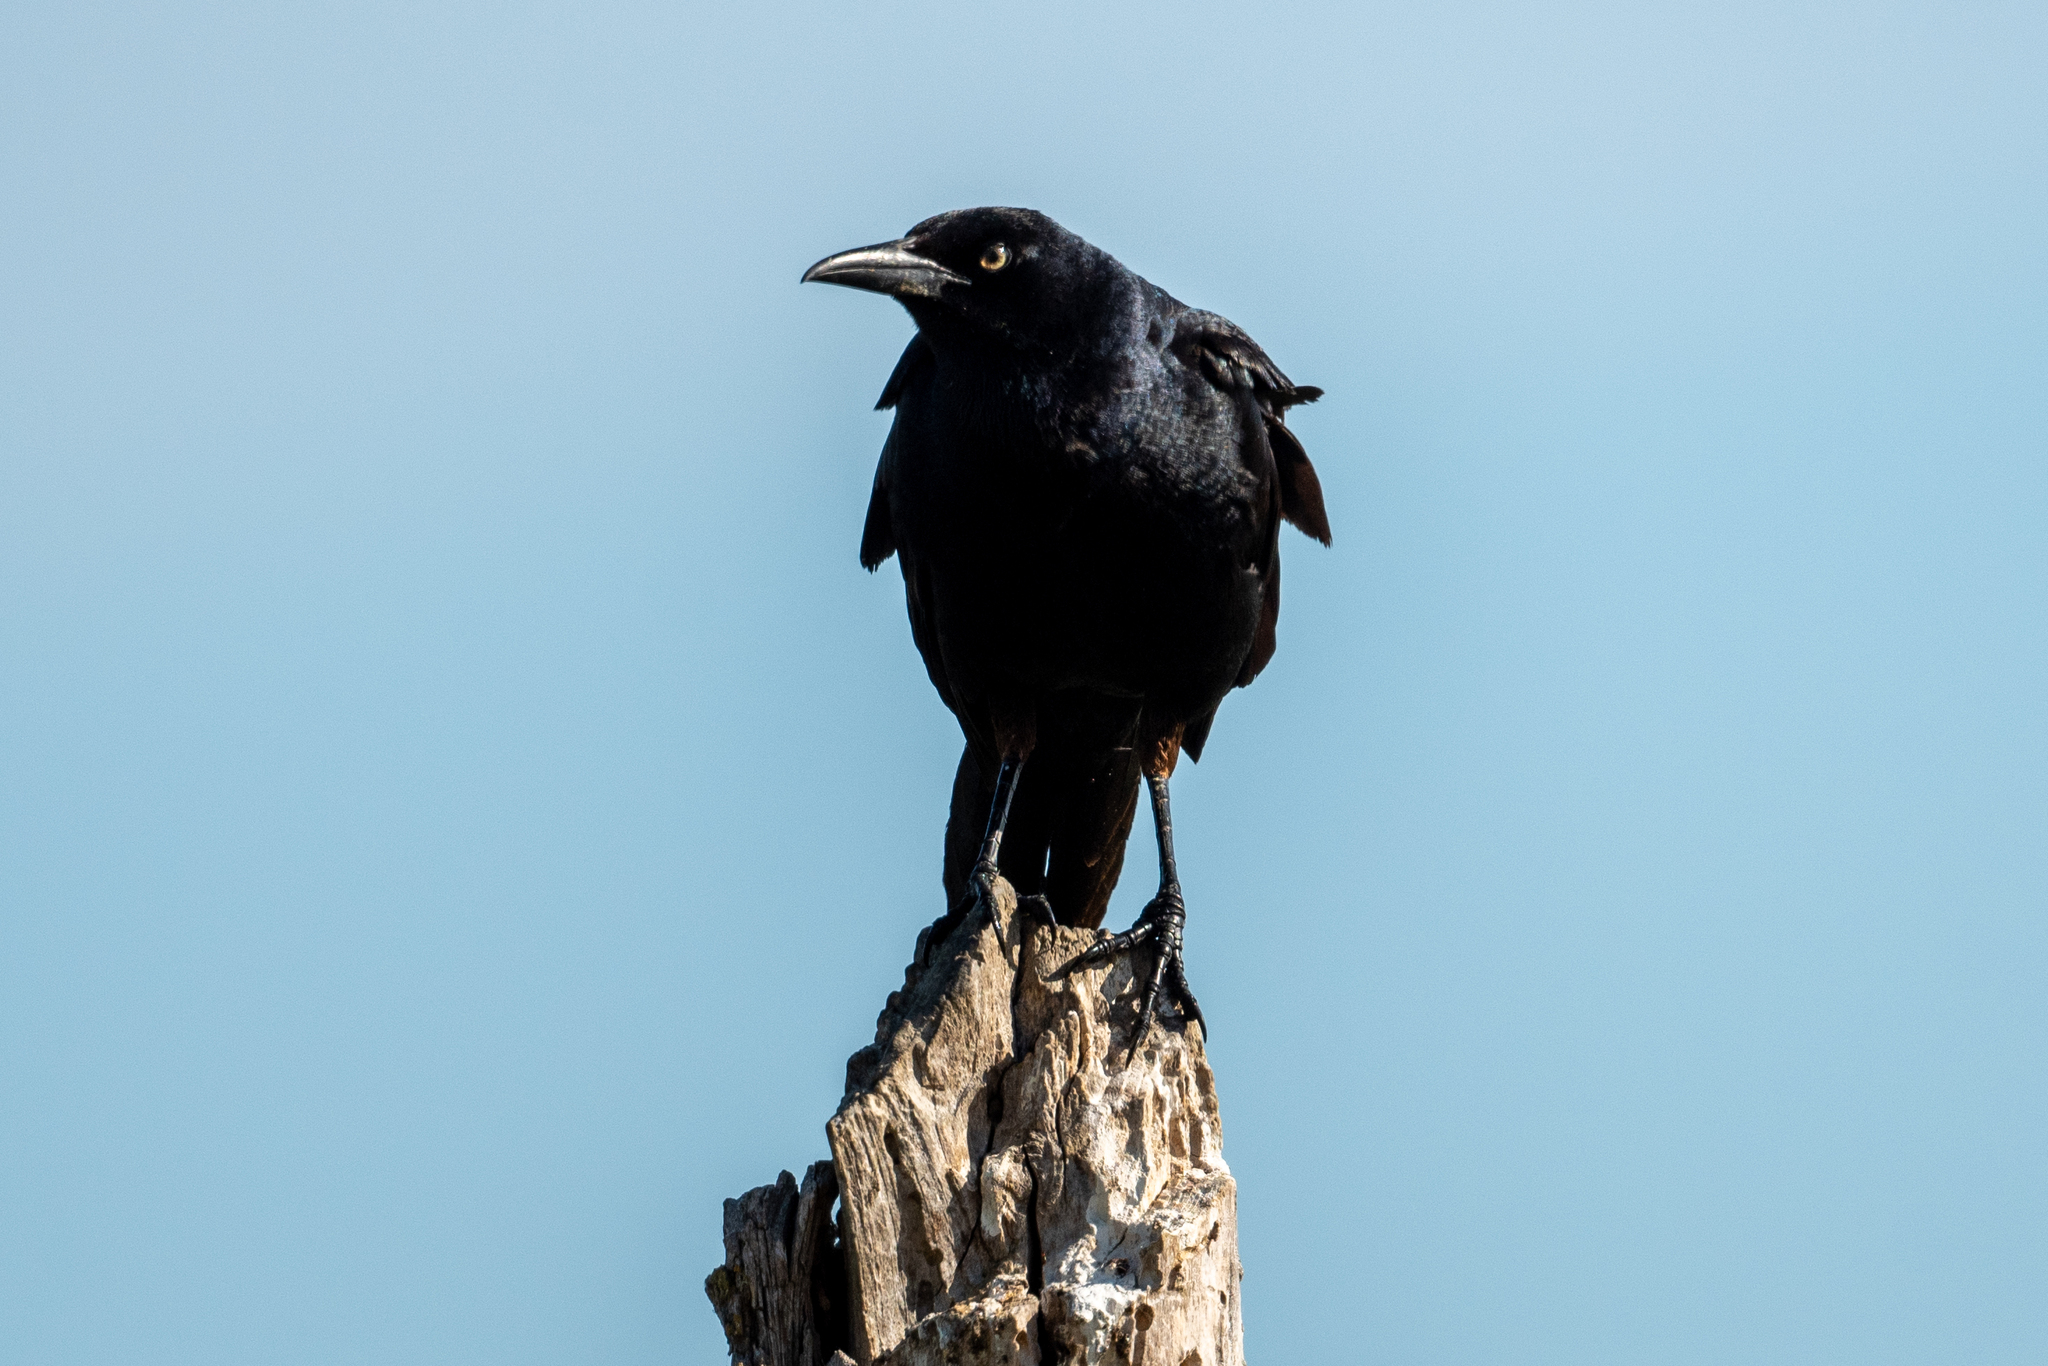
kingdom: Animalia
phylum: Chordata
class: Aves
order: Passeriformes
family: Icteridae
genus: Quiscalus
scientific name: Quiscalus mexicanus
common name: Great-tailed grackle
